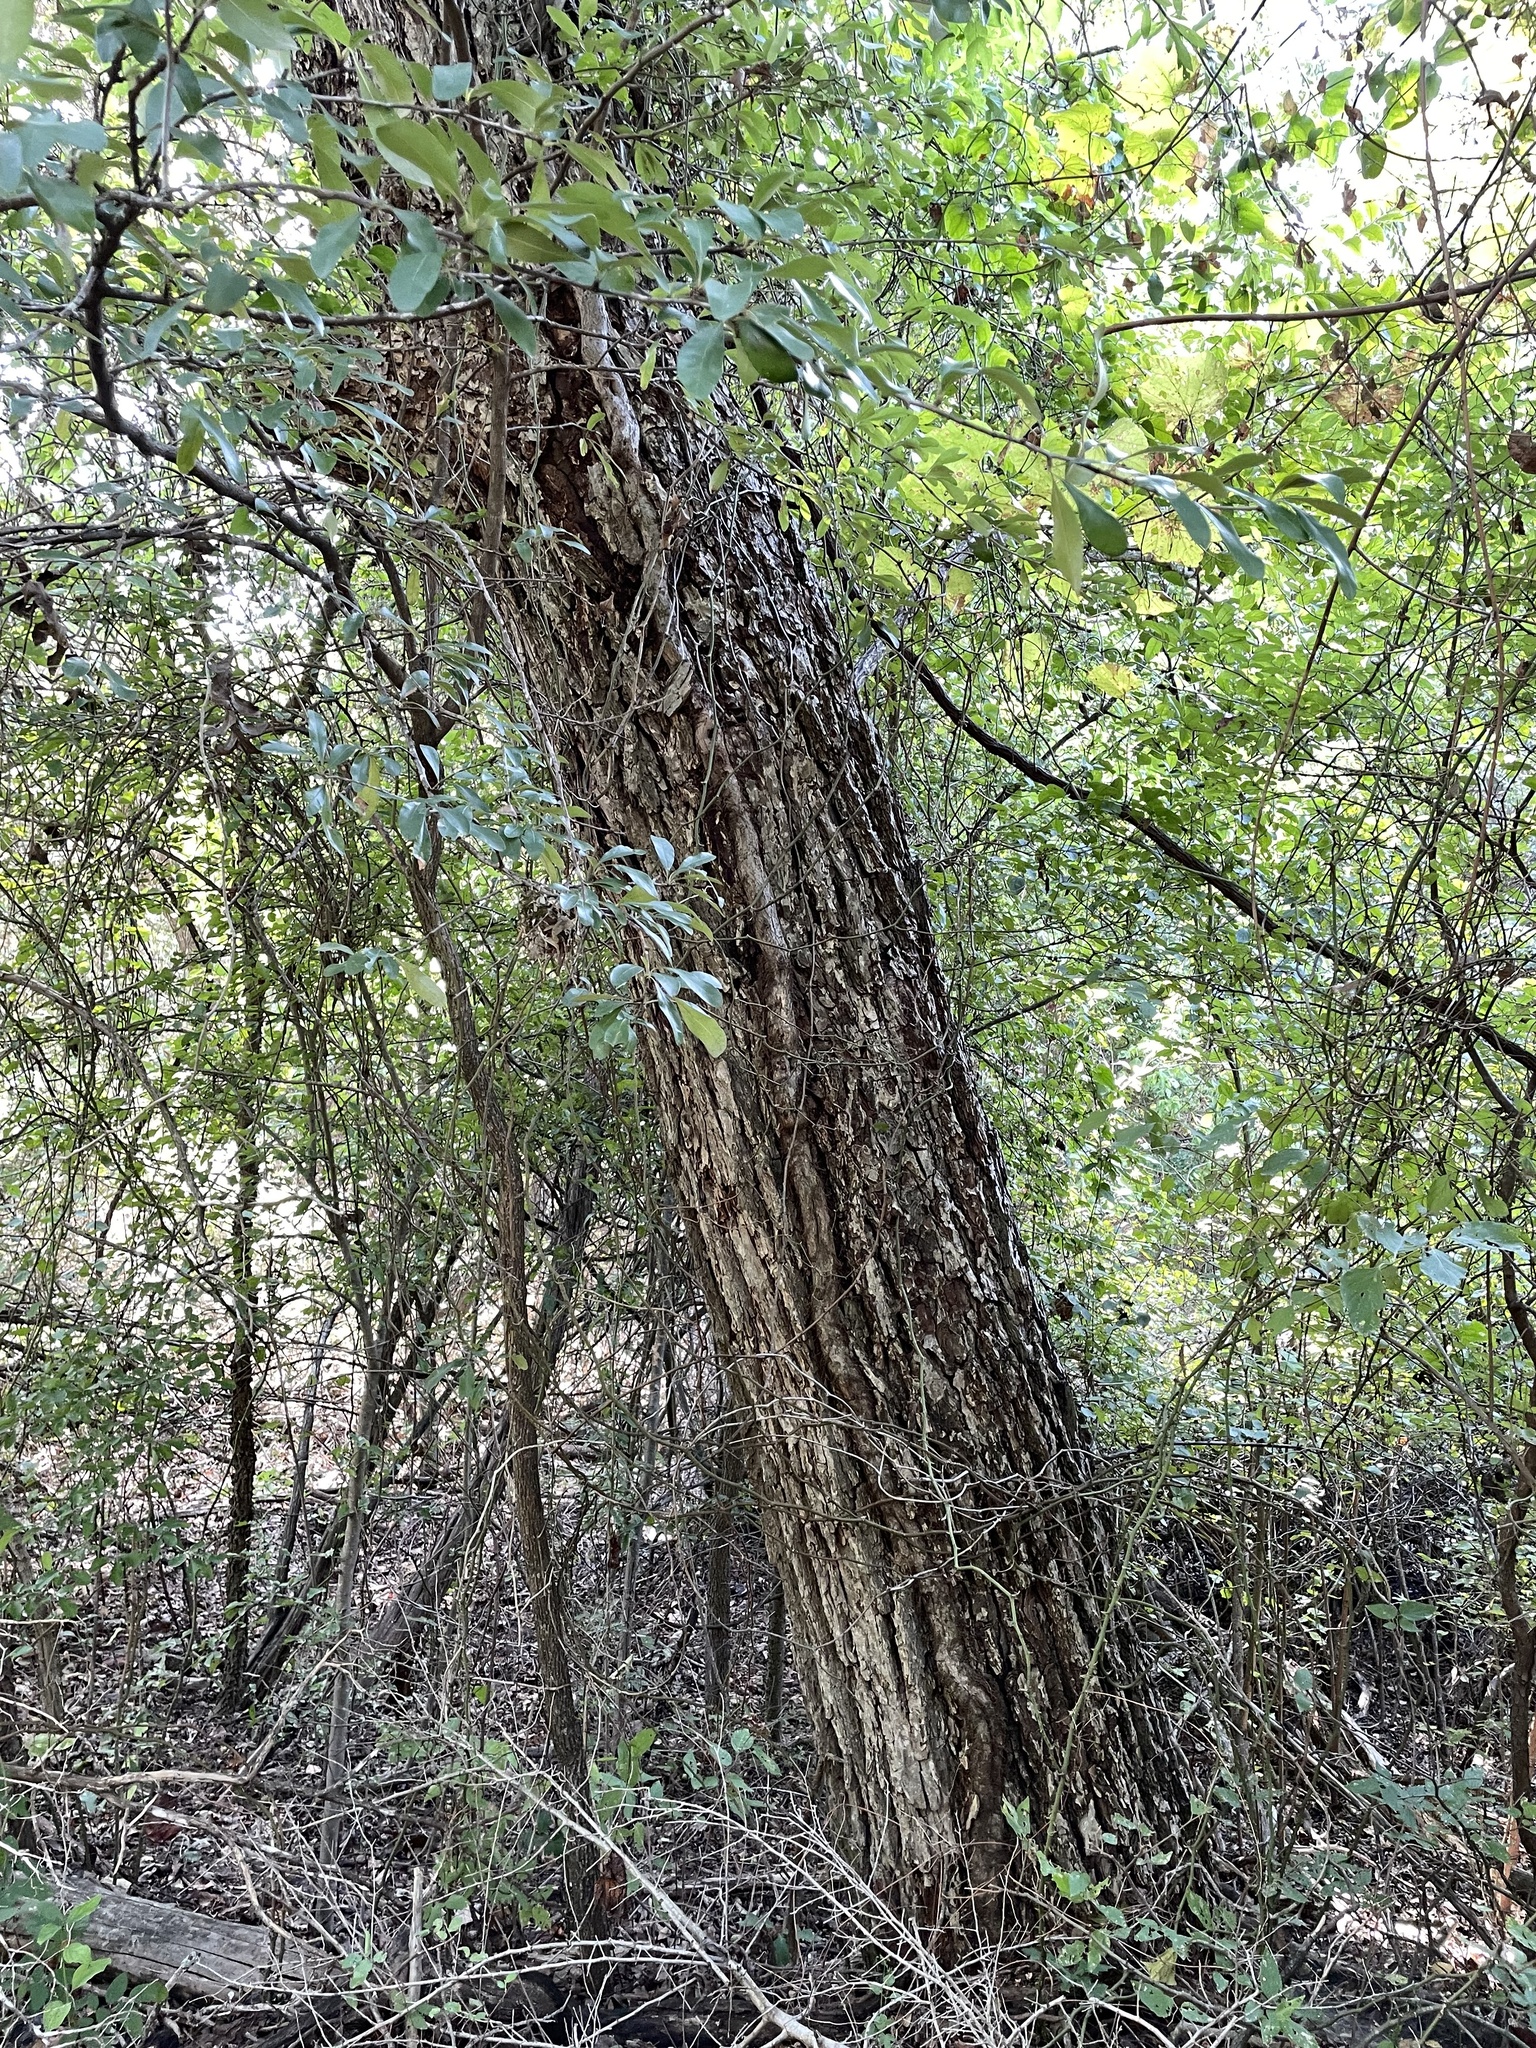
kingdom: Plantae
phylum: Tracheophyta
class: Magnoliopsida
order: Fagales
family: Juglandaceae
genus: Carya
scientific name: Carya illinoinensis
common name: Pecan
